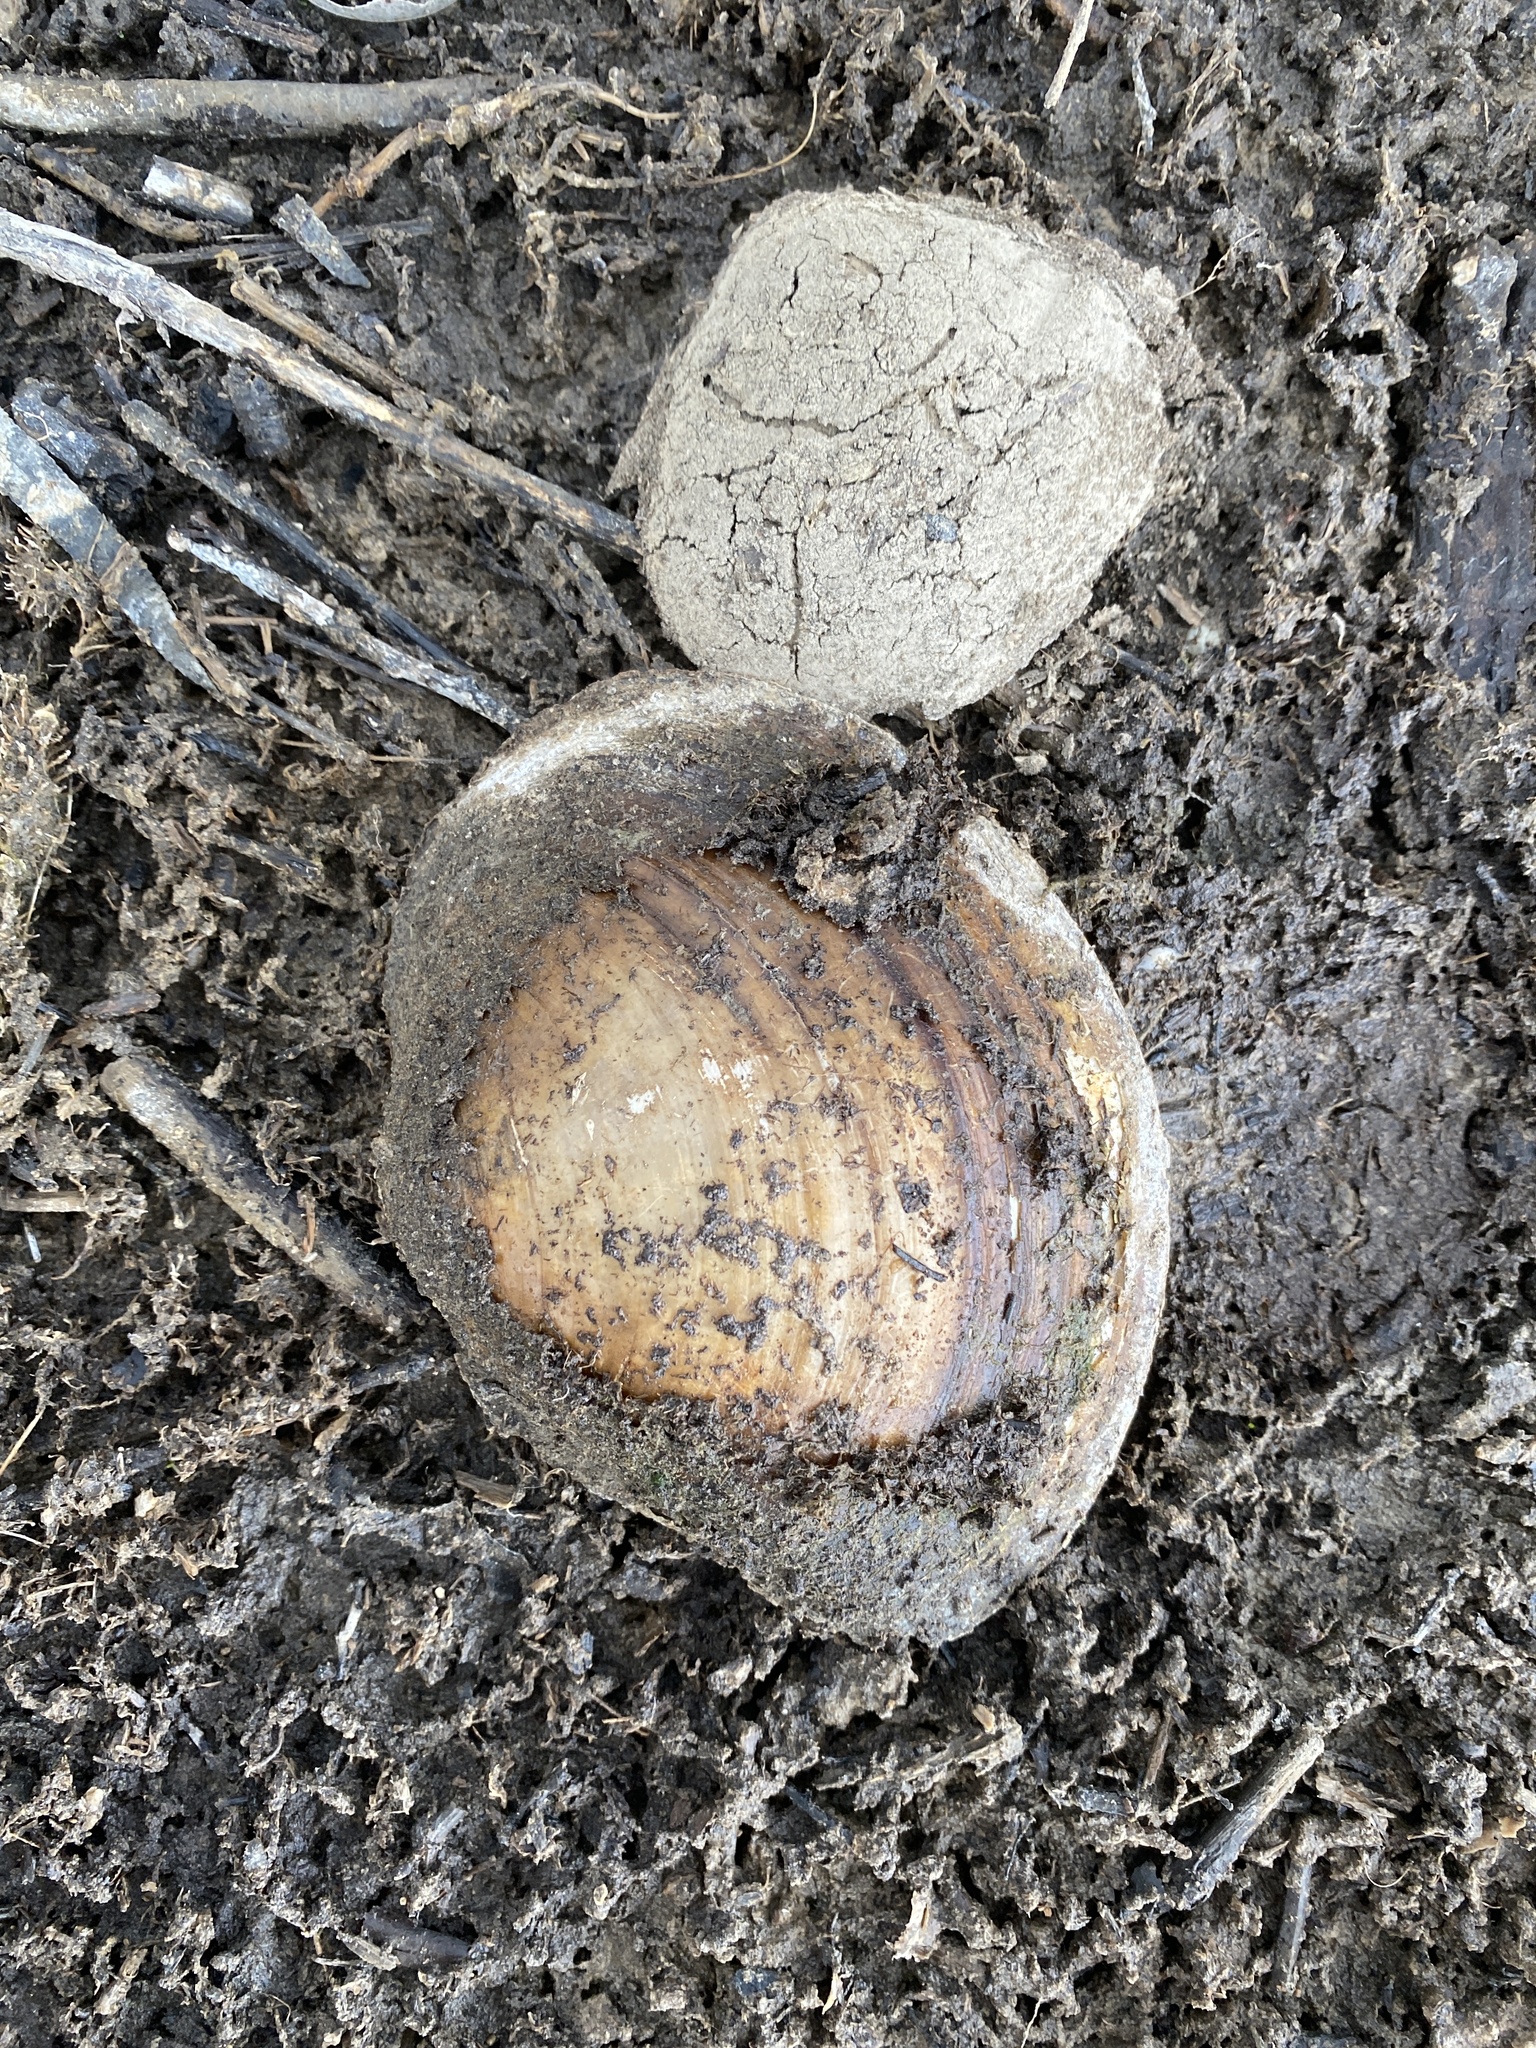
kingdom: Animalia
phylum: Mollusca
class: Bivalvia
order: Unionida
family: Unionidae
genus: Utterbackiana
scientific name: Utterbackiana suborbiculata
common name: Flat floater
